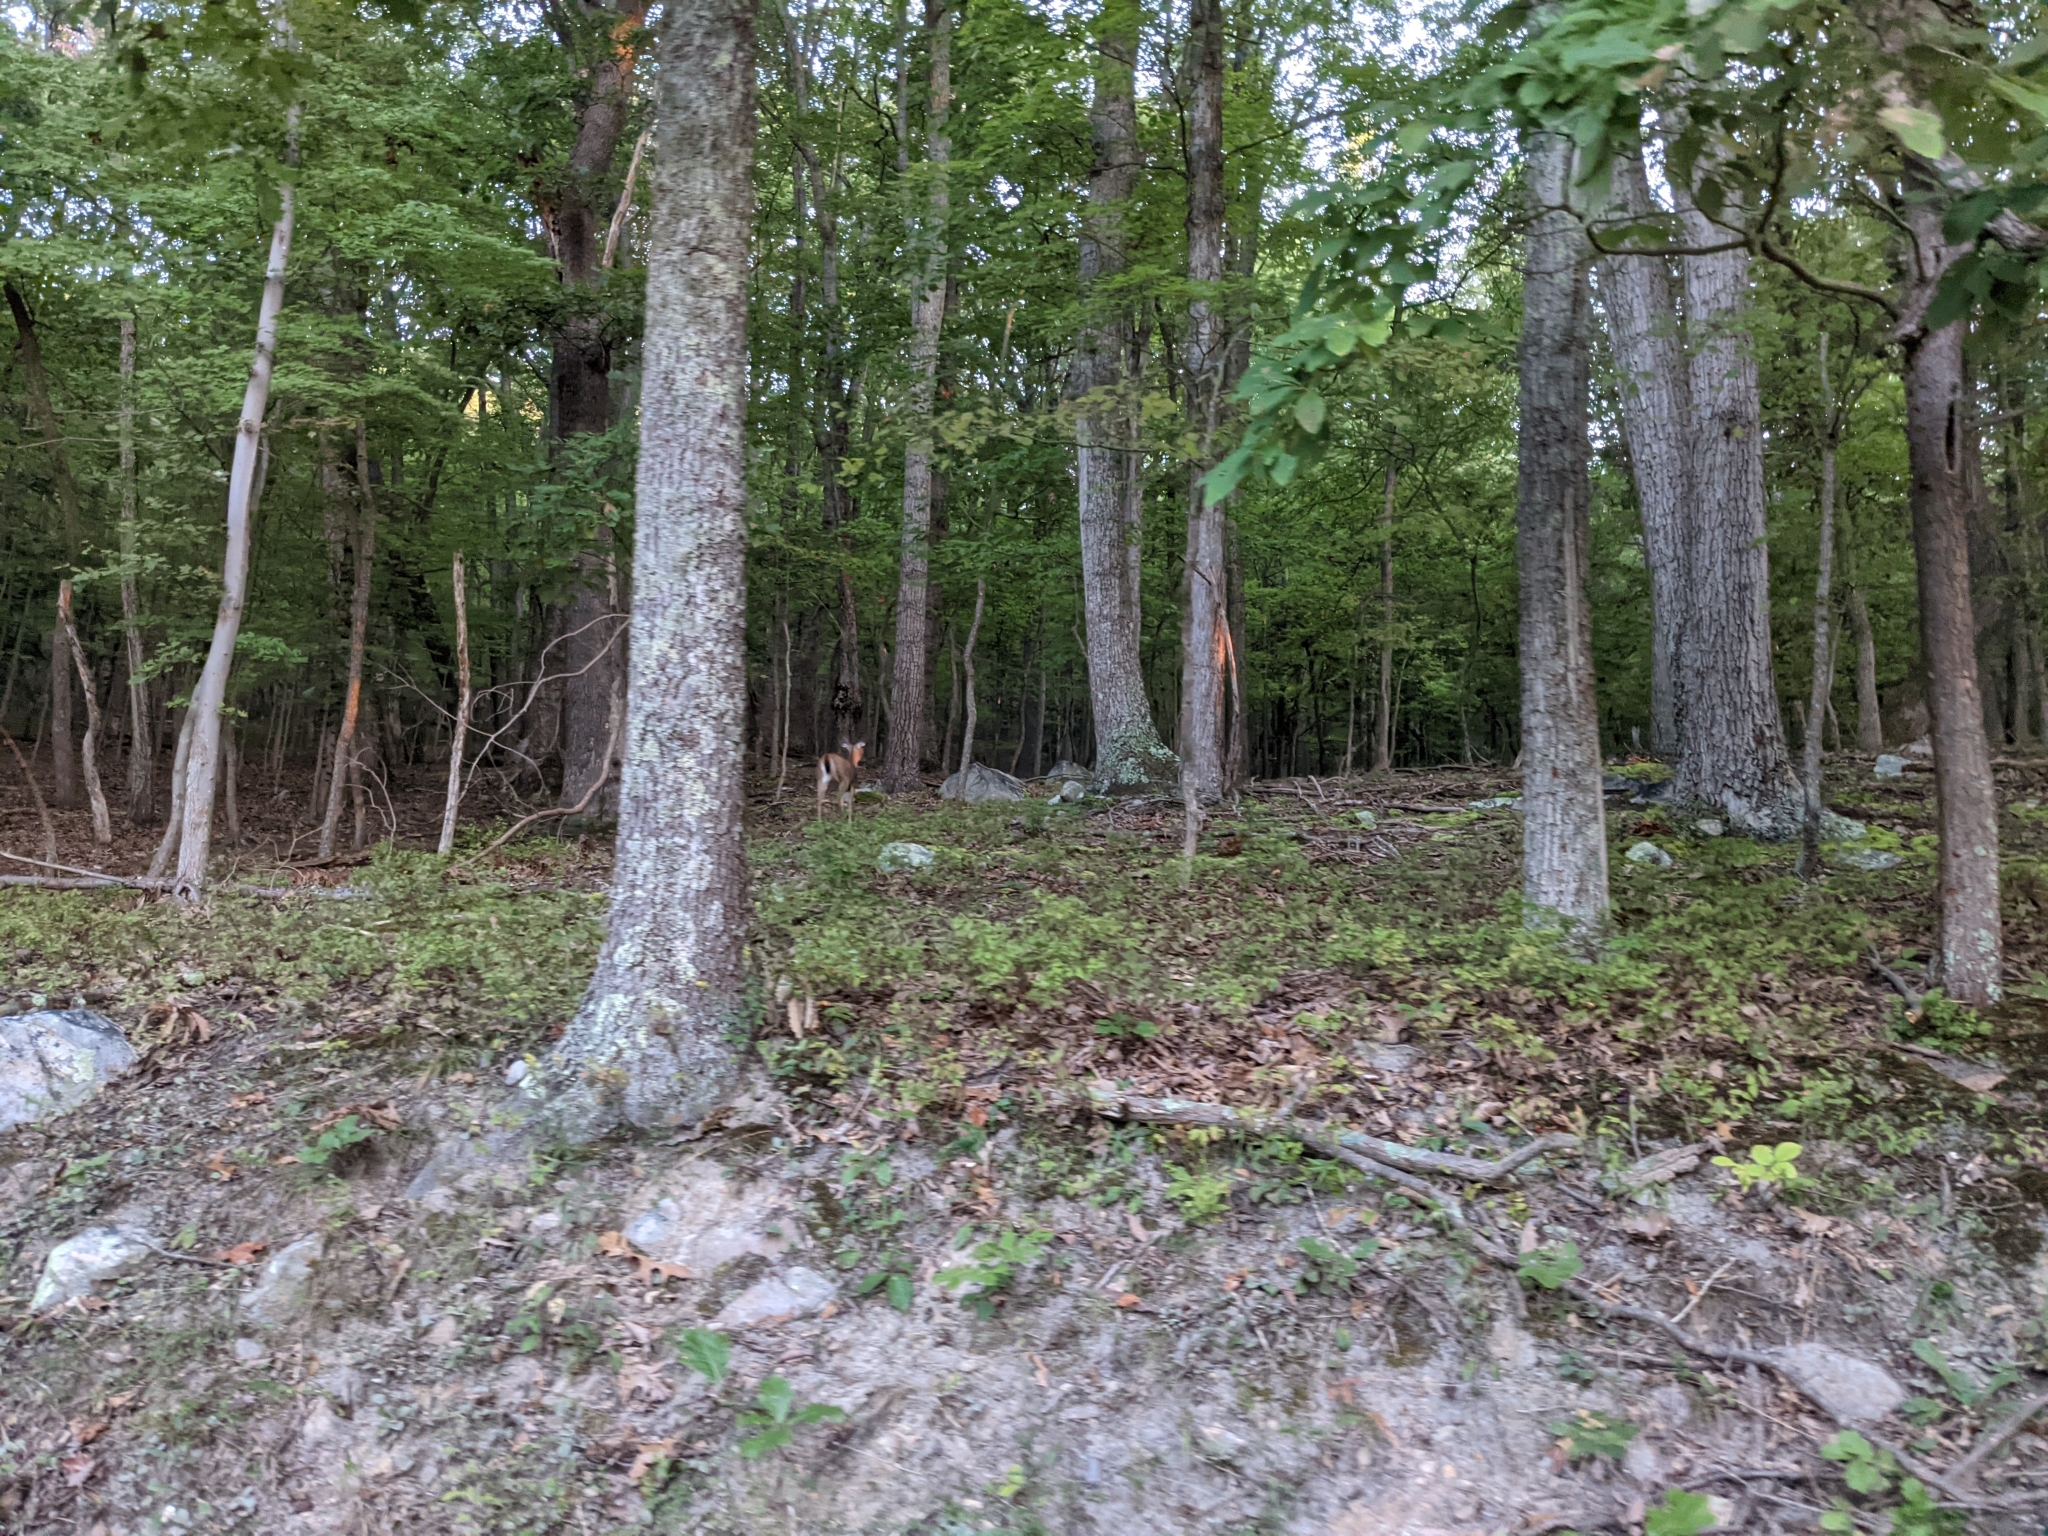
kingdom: Animalia
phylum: Chordata
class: Mammalia
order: Artiodactyla
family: Cervidae
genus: Odocoileus
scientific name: Odocoileus virginianus
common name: White-tailed deer
